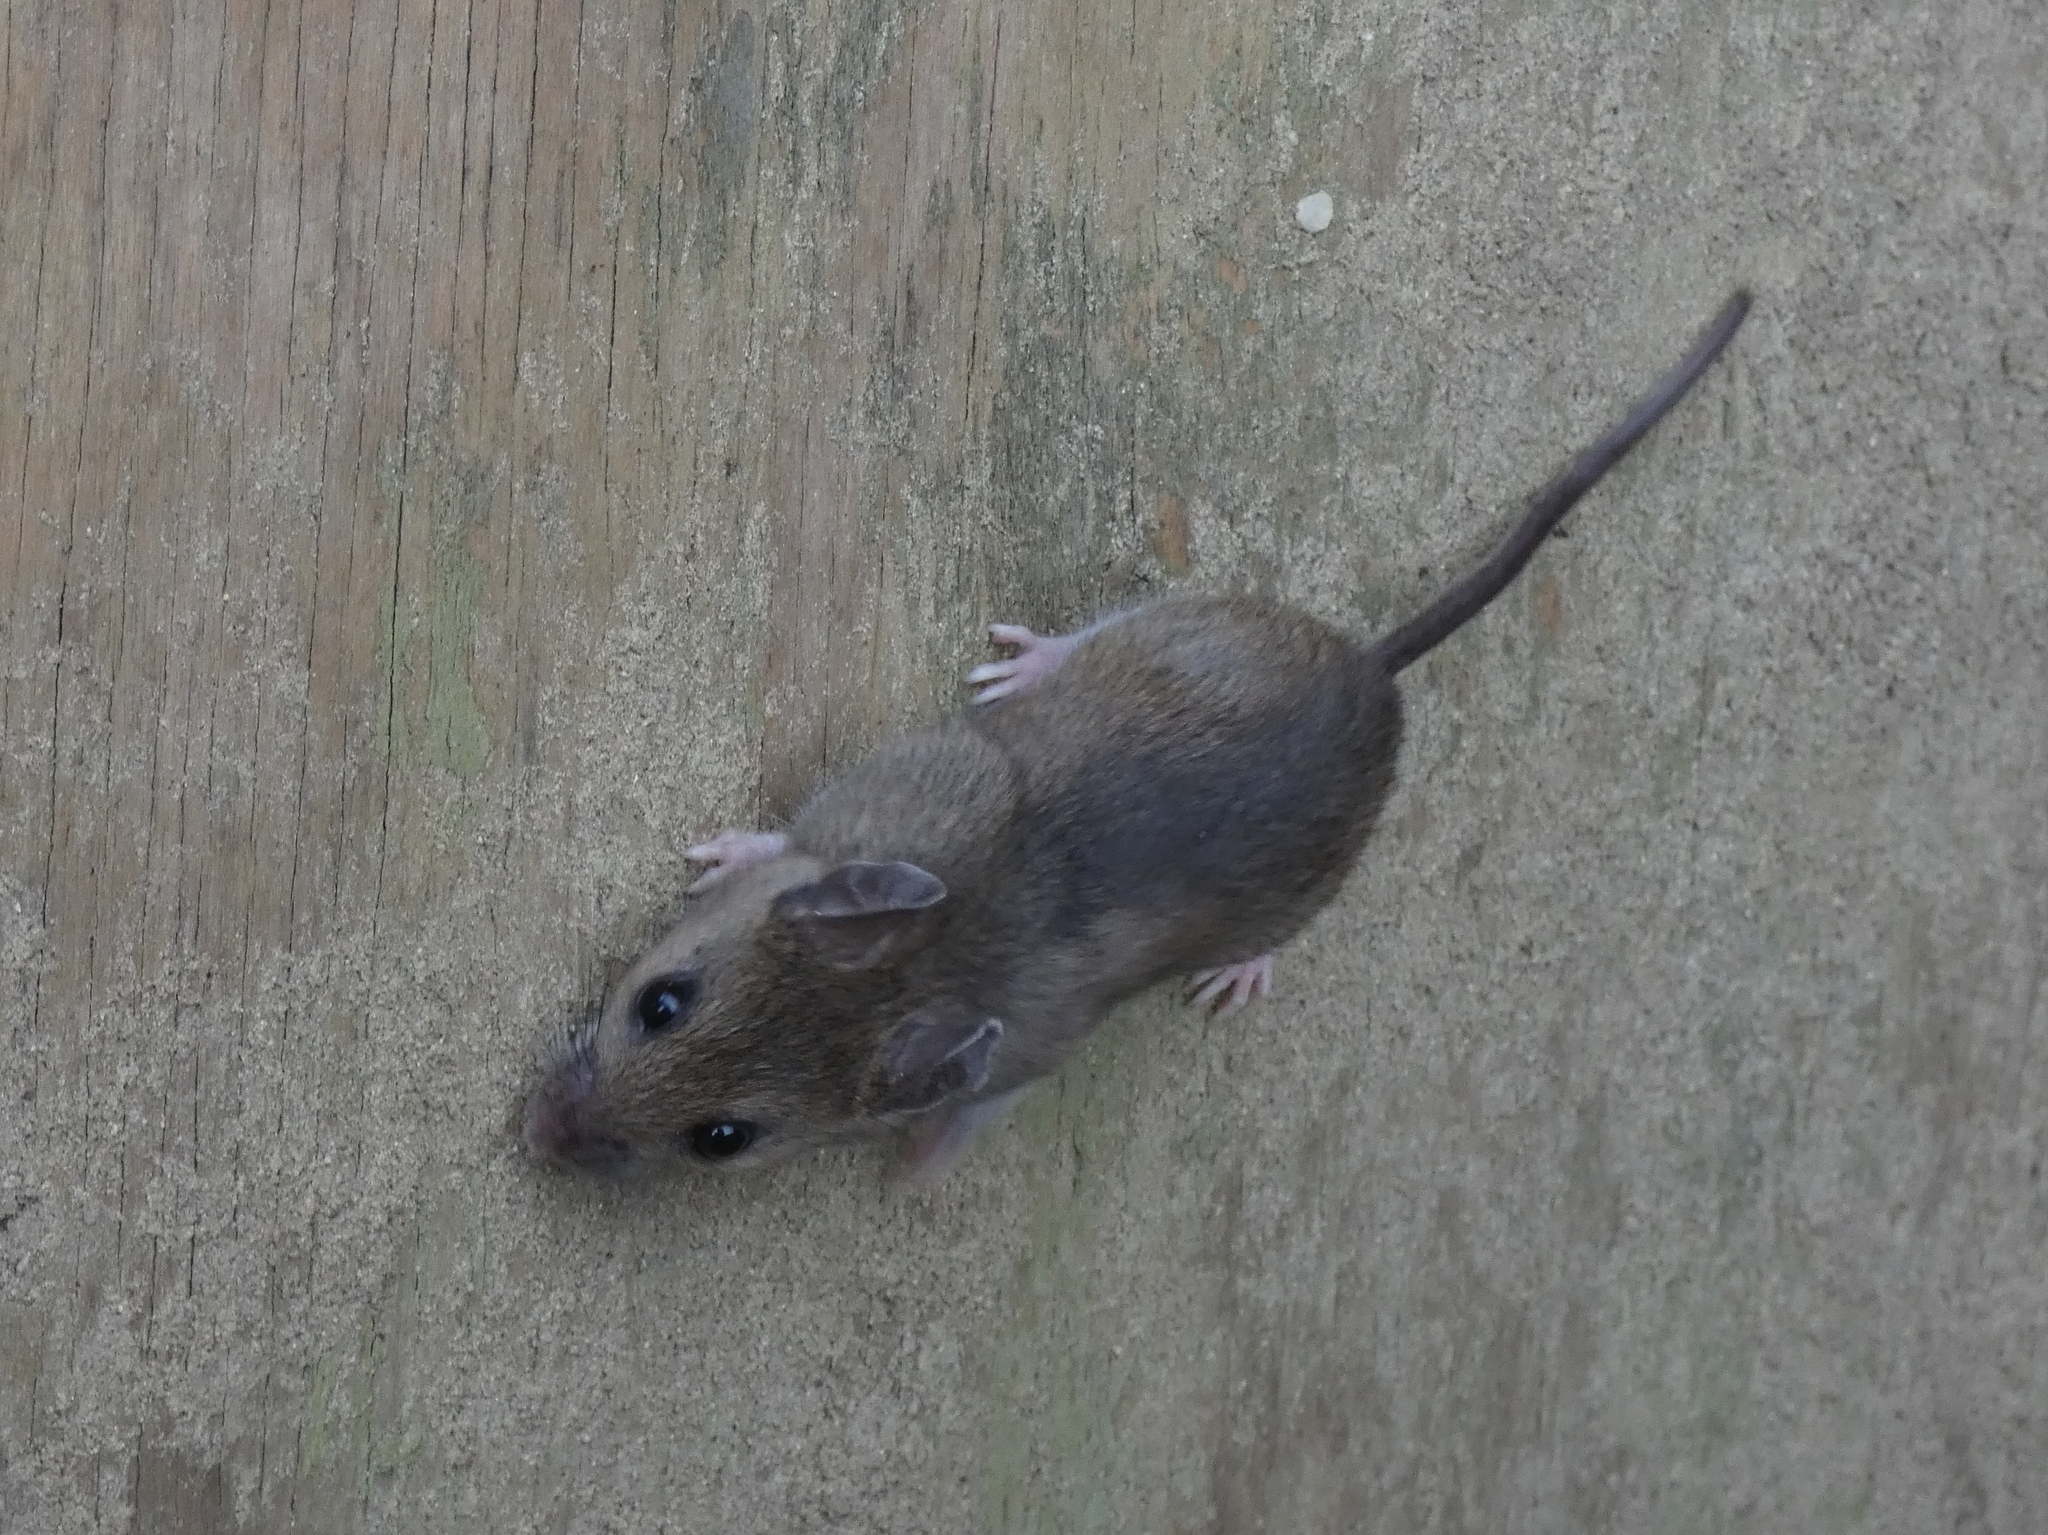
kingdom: Animalia
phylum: Chordata
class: Mammalia
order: Rodentia
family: Cricetidae
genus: Peromyscus
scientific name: Peromyscus leucopus
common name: White-footed deermouse
